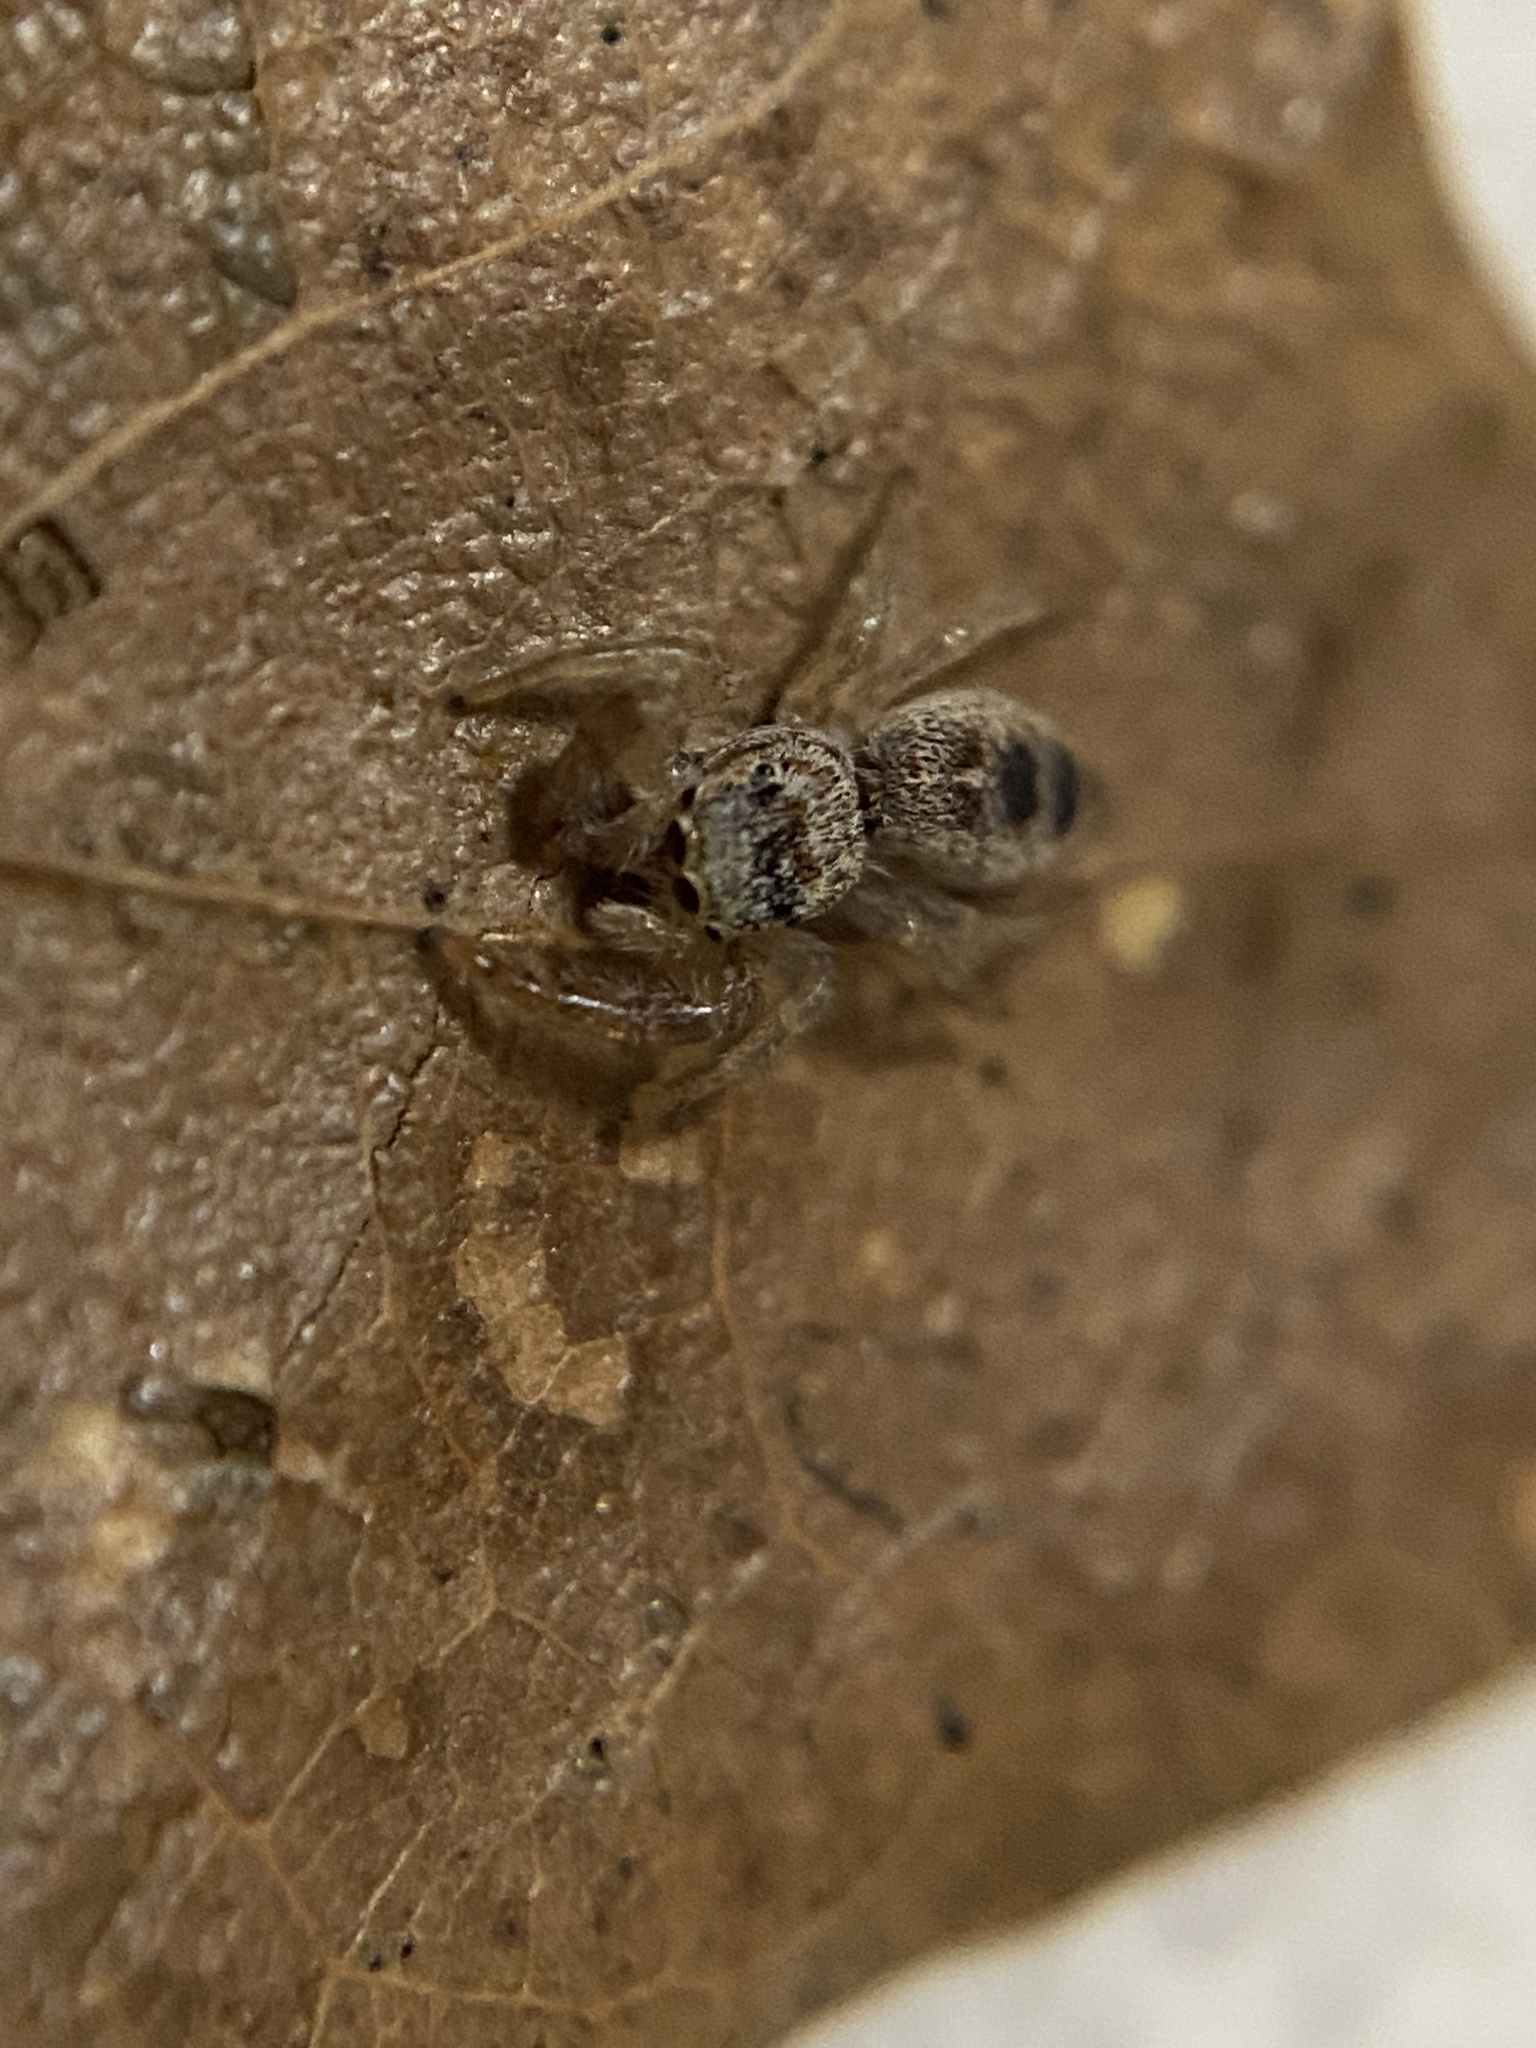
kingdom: Animalia
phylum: Arthropoda
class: Arachnida
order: Araneae
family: Salticidae
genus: Hentzia
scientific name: Hentzia mitrata
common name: White-jawed jumping spider
